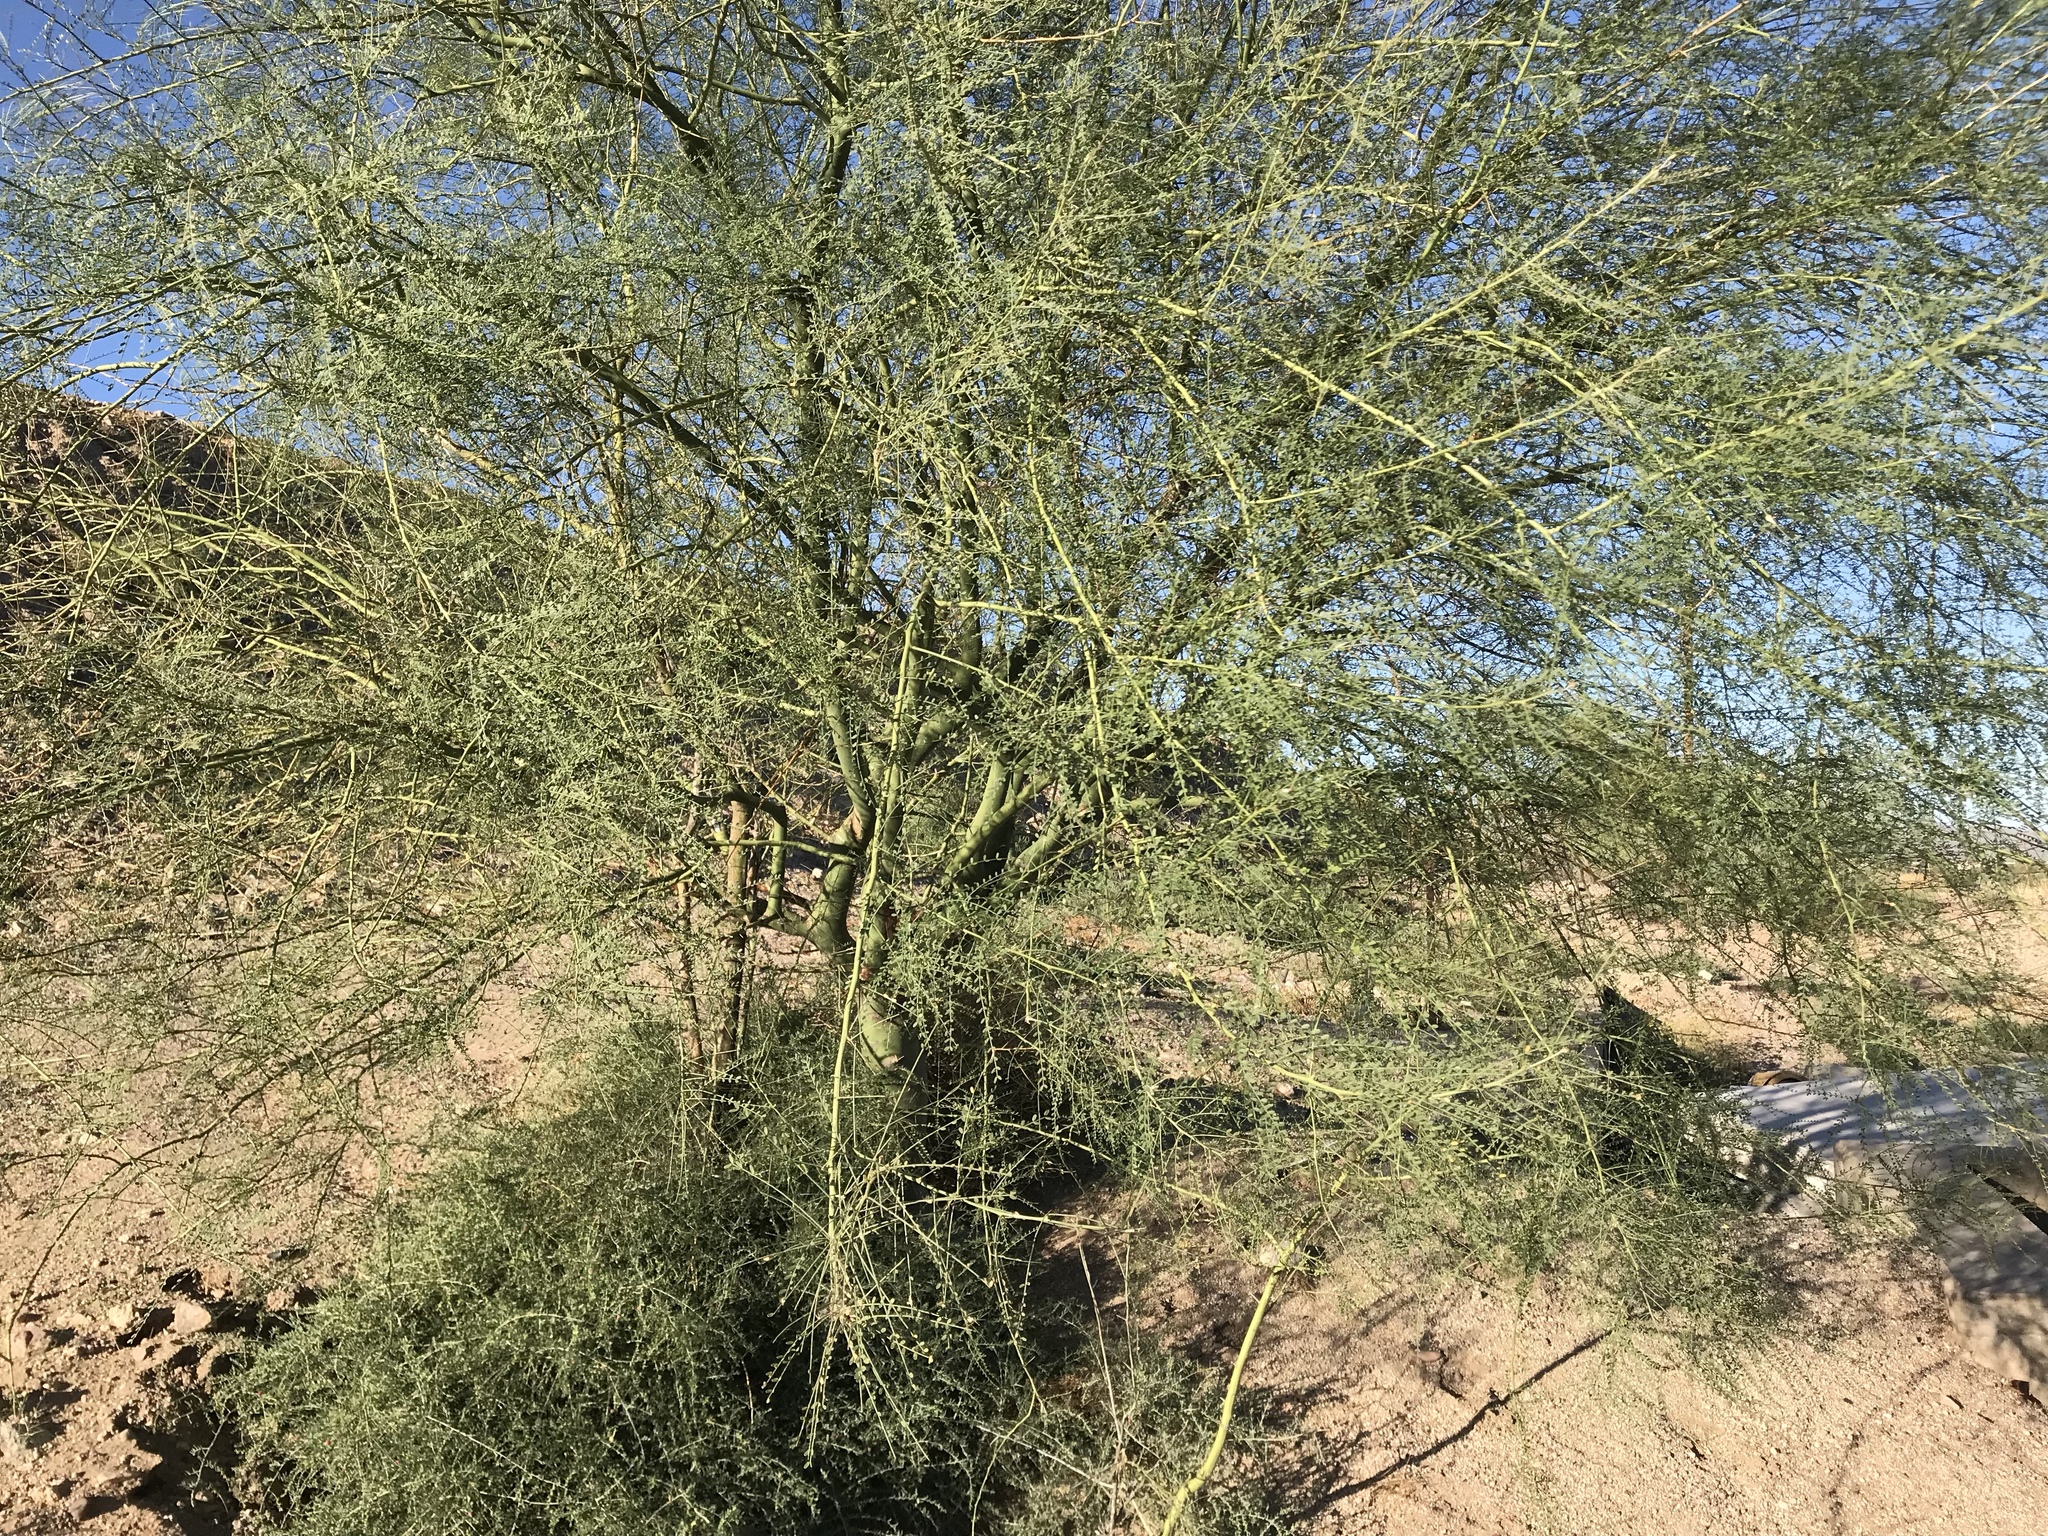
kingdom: Plantae
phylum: Tracheophyta
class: Magnoliopsida
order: Fabales
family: Fabaceae
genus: Parkinsonia
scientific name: Parkinsonia aculeata
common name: Jerusalem thorn
